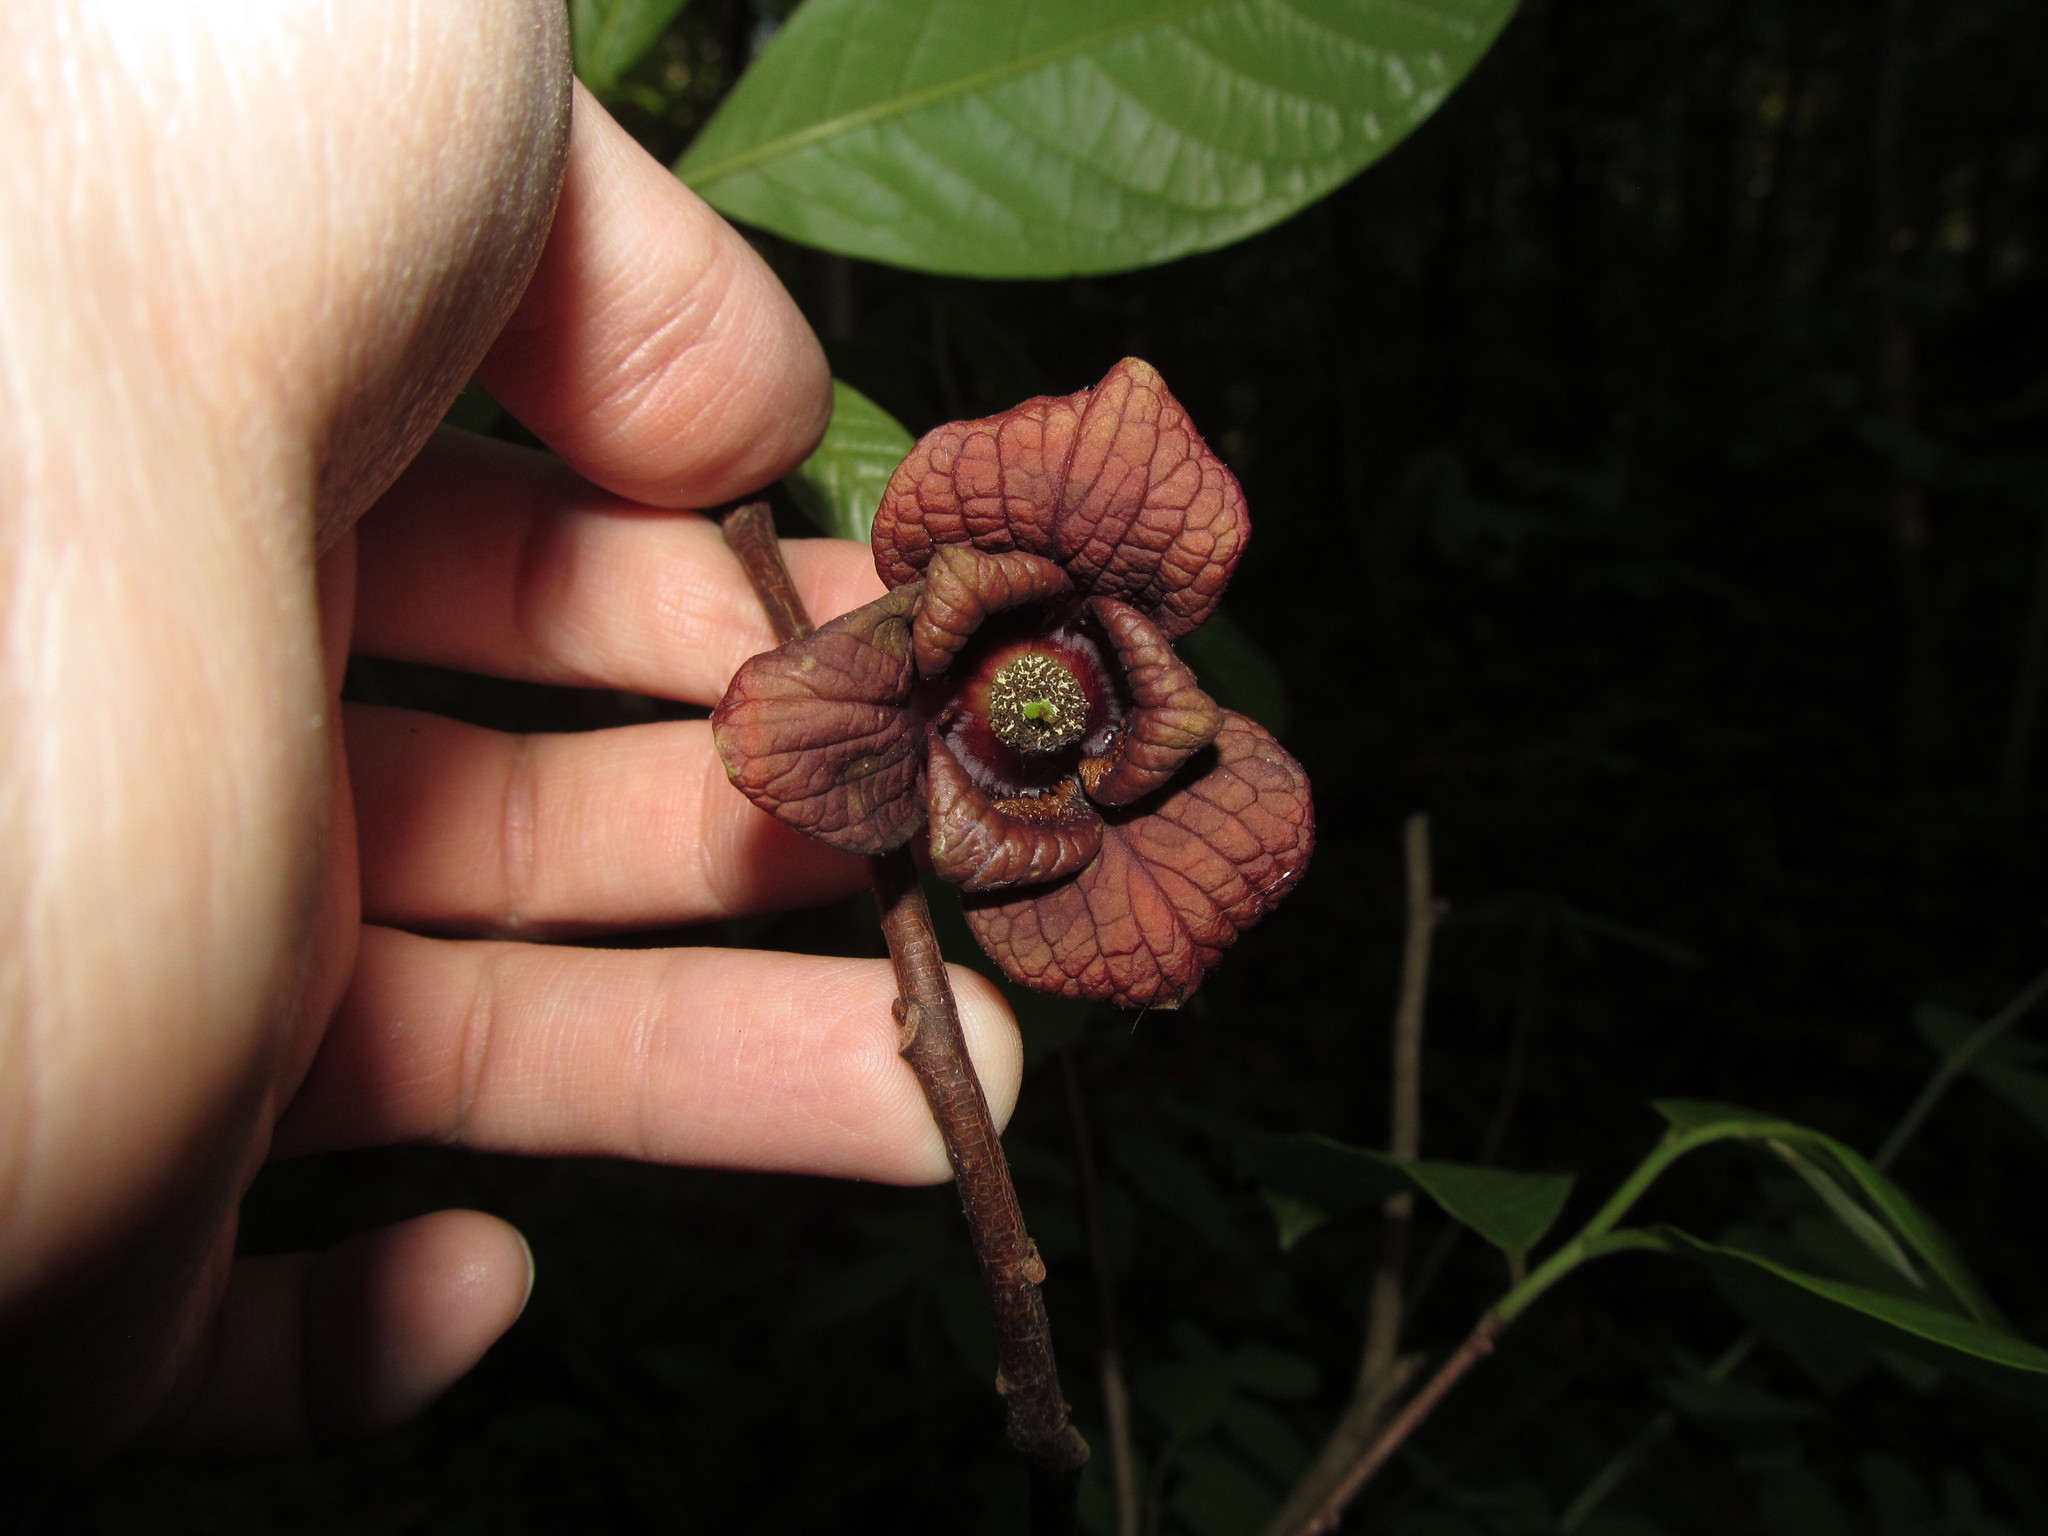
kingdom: Plantae
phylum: Tracheophyta
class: Magnoliopsida
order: Magnoliales
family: Annonaceae
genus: Asimina
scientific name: Asimina triloba
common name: Dog-banana
